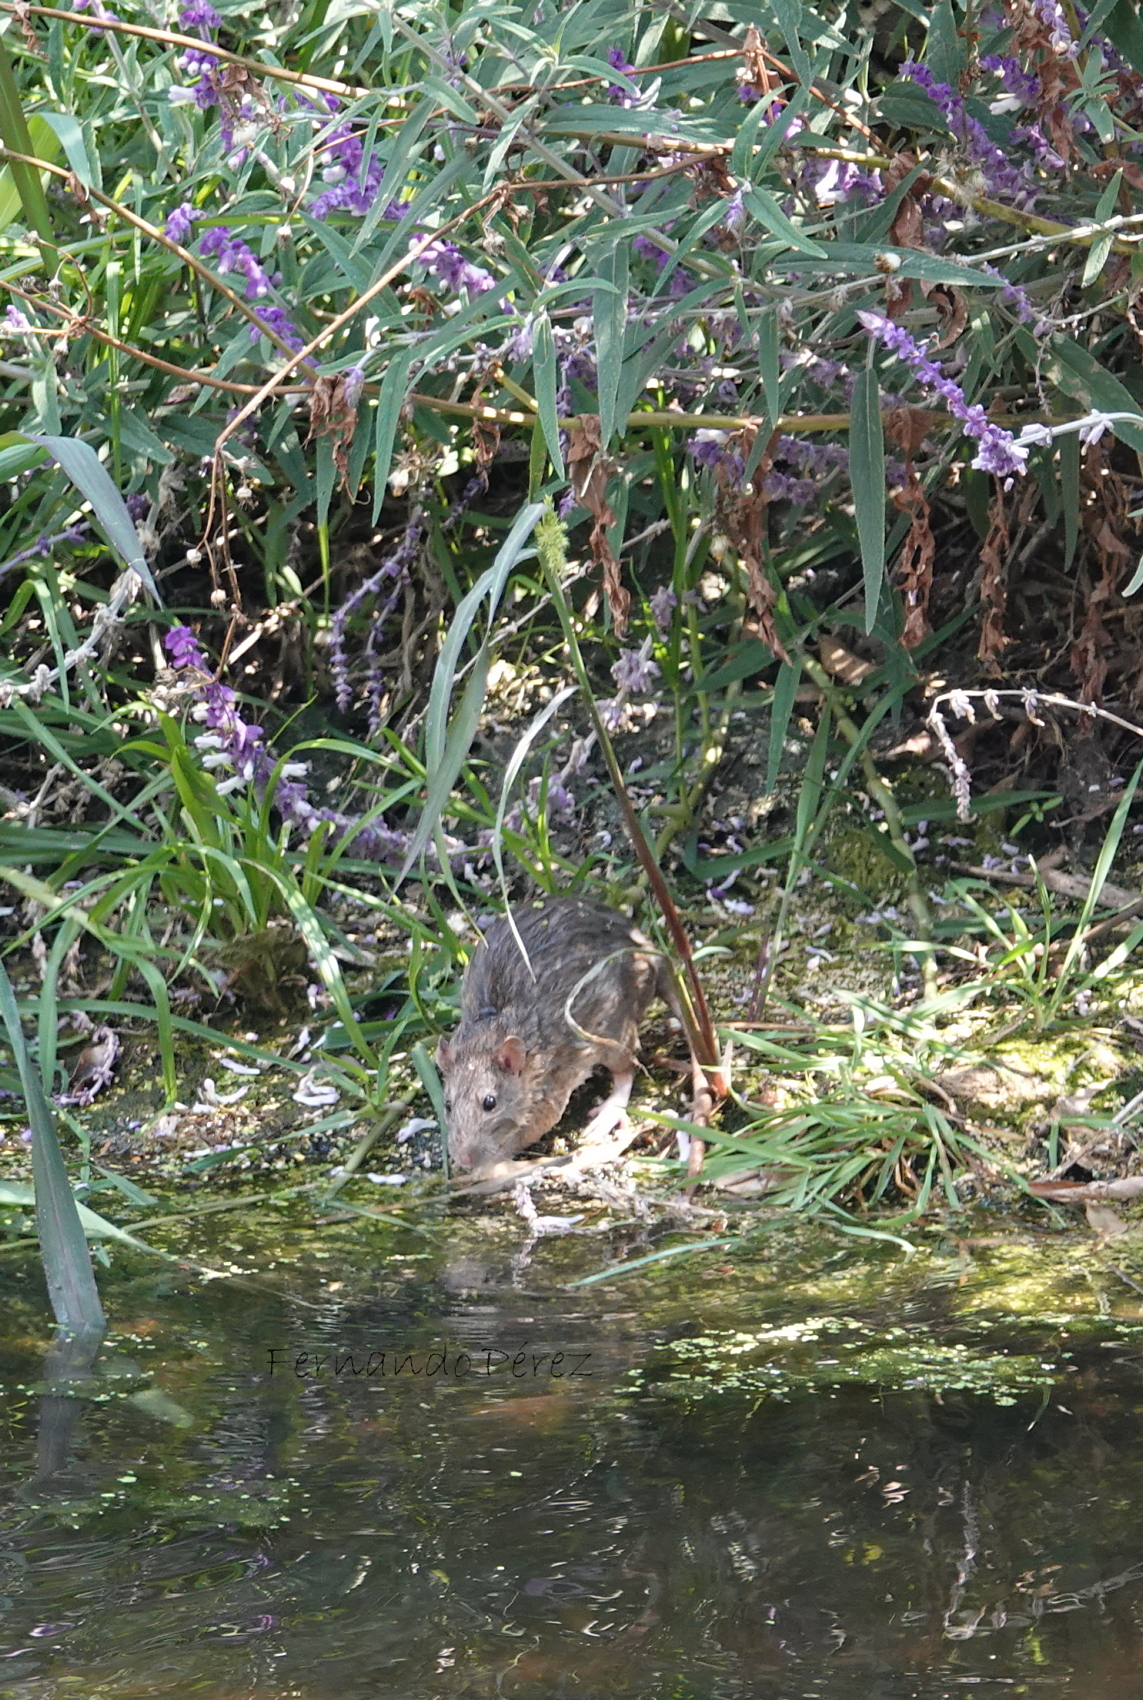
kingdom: Animalia
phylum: Chordata
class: Mammalia
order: Rodentia
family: Muridae
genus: Rattus
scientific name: Rattus norvegicus
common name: Brown rat
